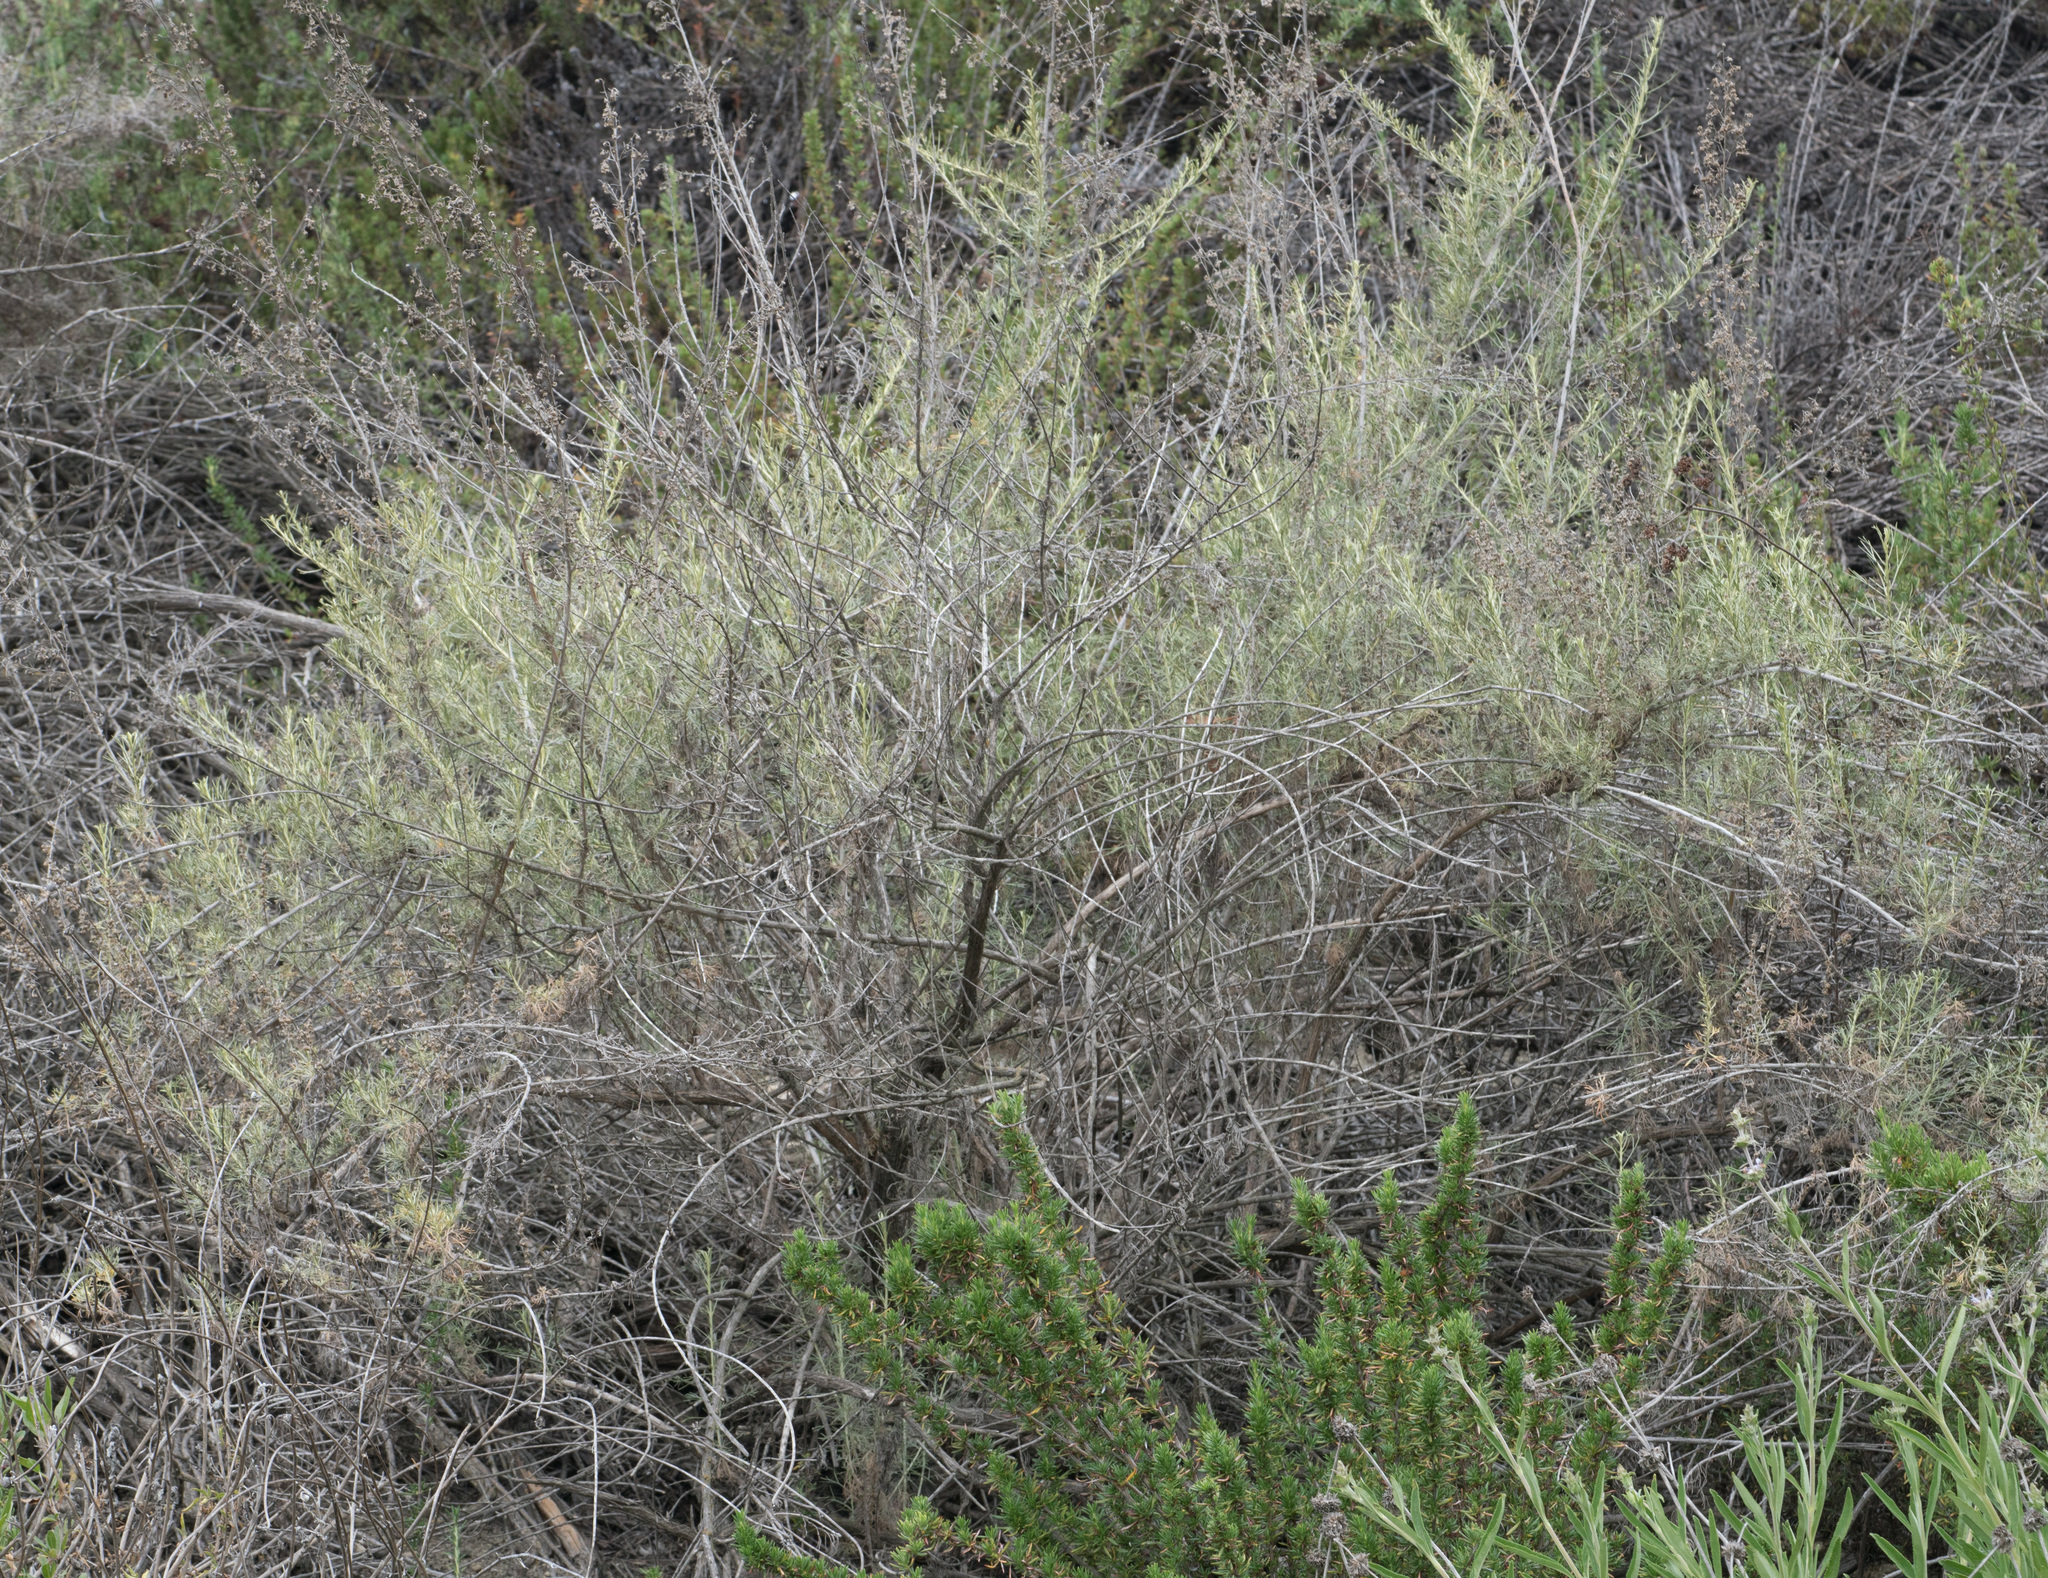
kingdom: Plantae
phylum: Tracheophyta
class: Magnoliopsida
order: Asterales
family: Asteraceae
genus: Artemisia
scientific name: Artemisia californica
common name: California sagebrush
